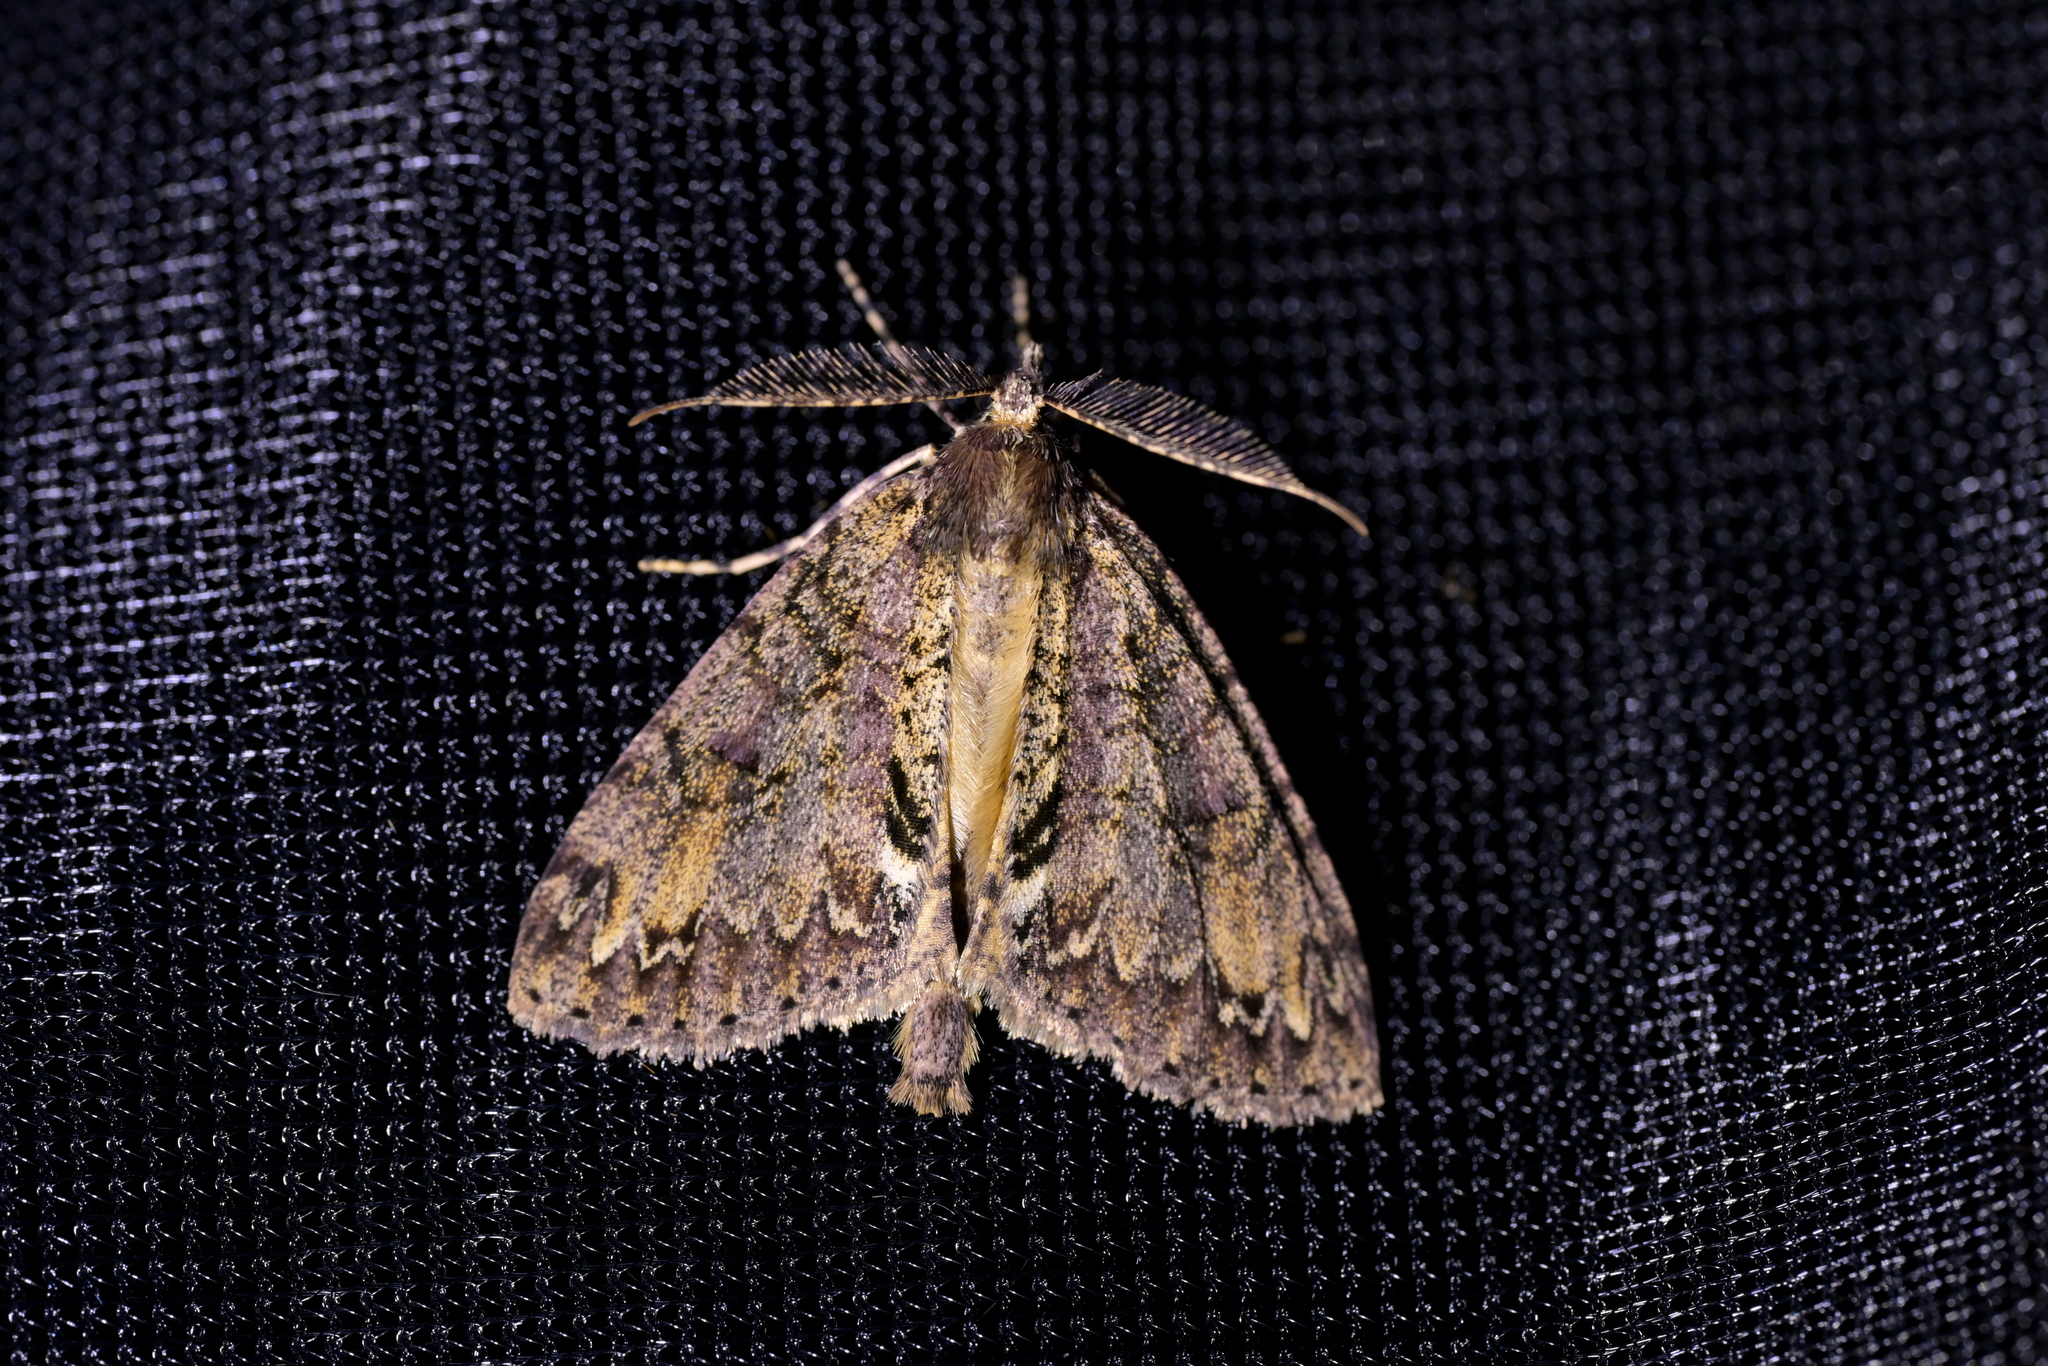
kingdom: Animalia
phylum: Arthropoda
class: Insecta
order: Lepidoptera
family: Geometridae
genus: Pseudocoremia
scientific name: Pseudocoremia suavis
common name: Common forest looper
